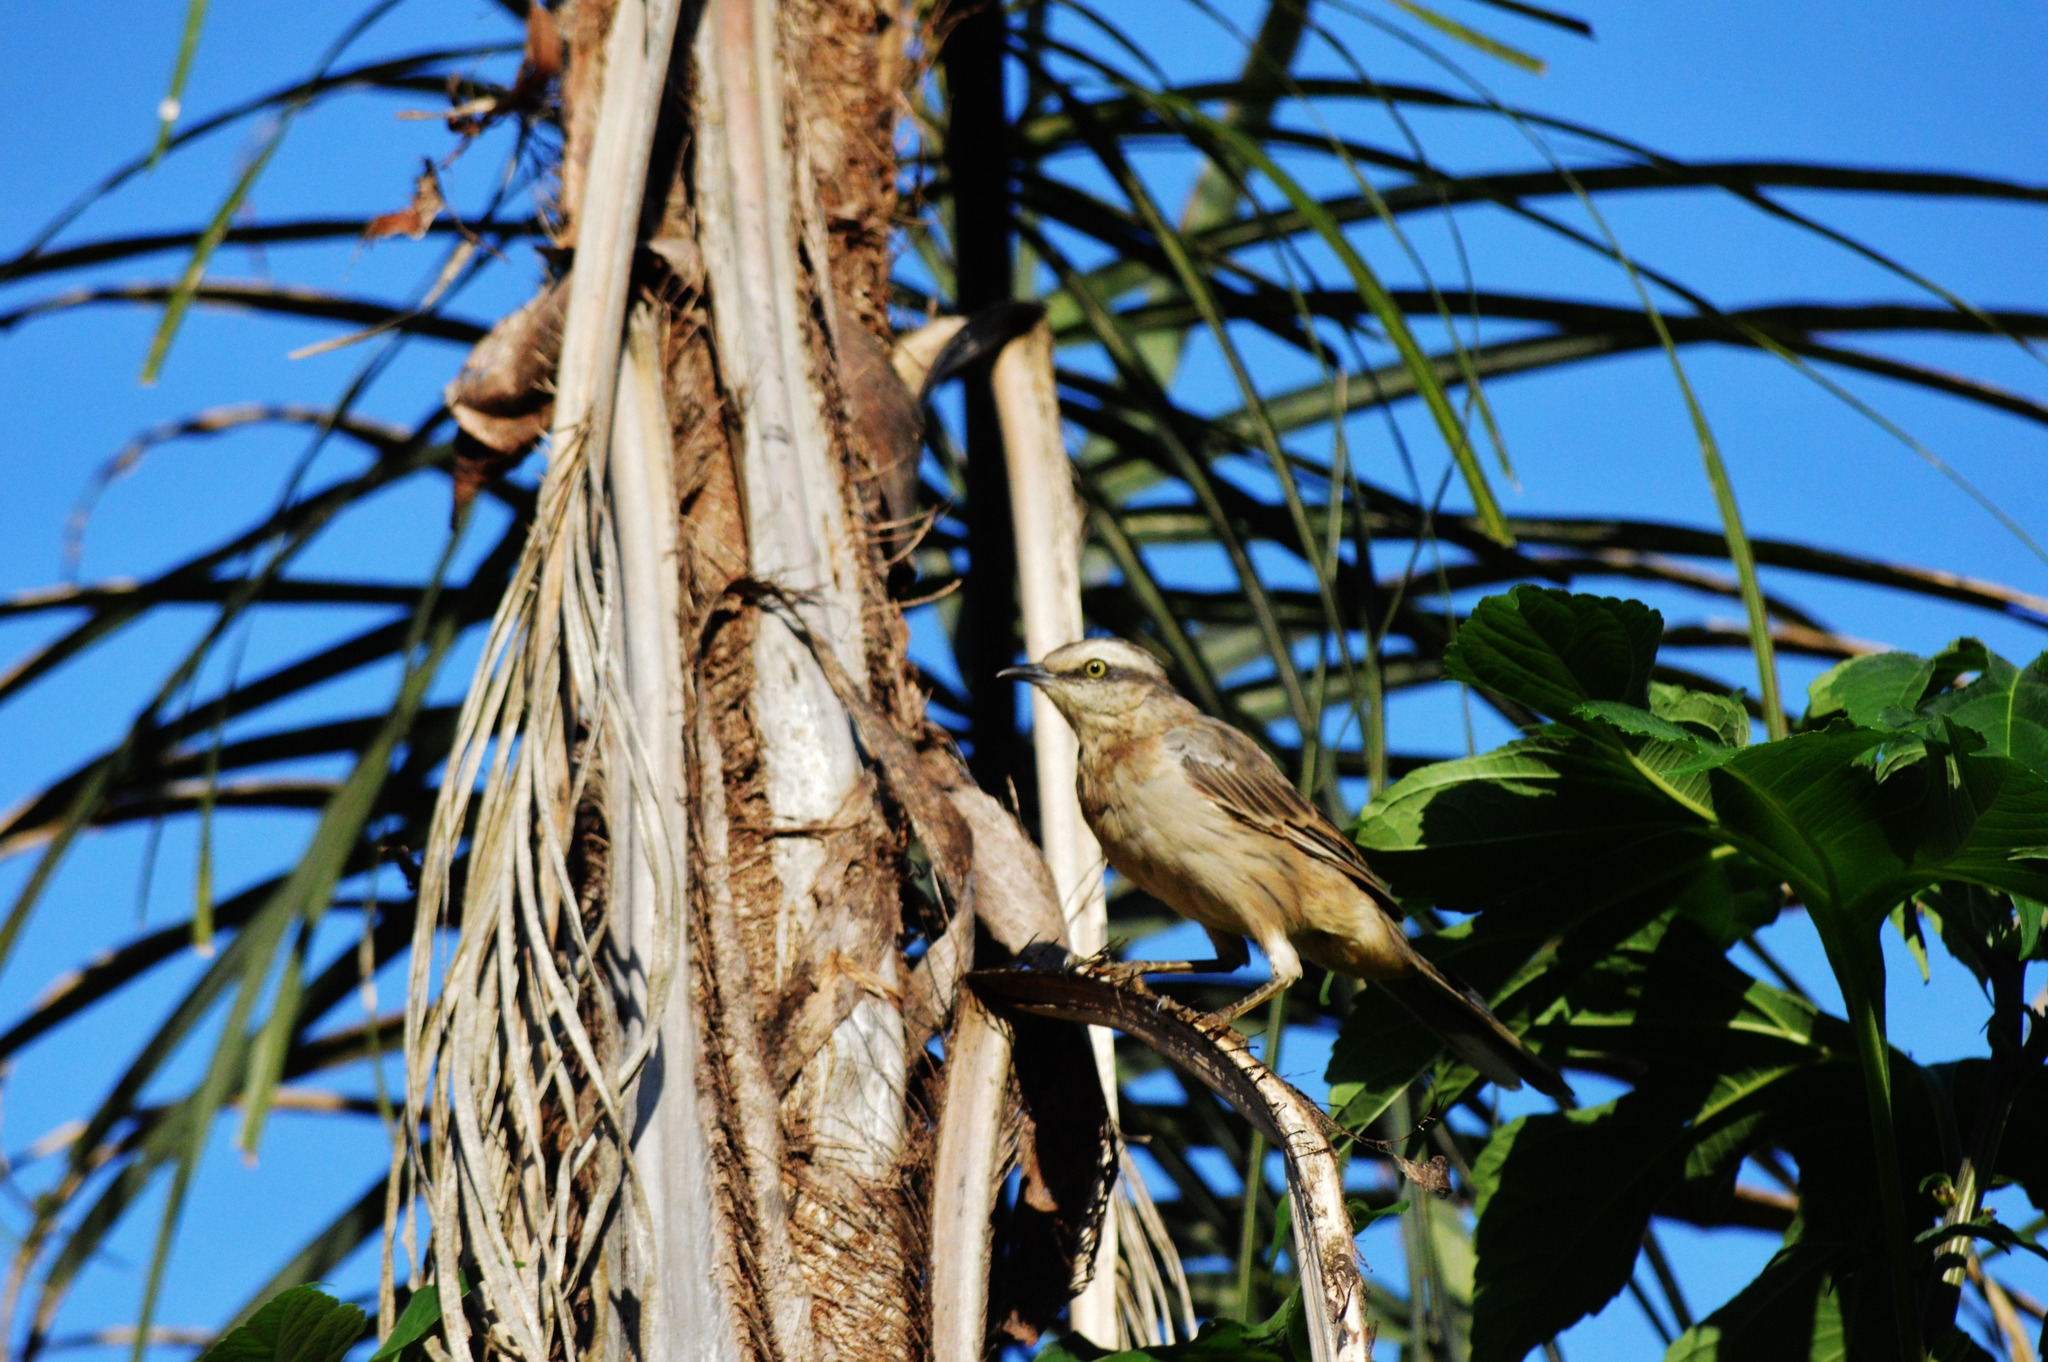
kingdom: Animalia
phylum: Chordata
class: Aves
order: Passeriformes
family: Mimidae
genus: Mimus
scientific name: Mimus saturninus
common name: Chalk-browed mockingbird
